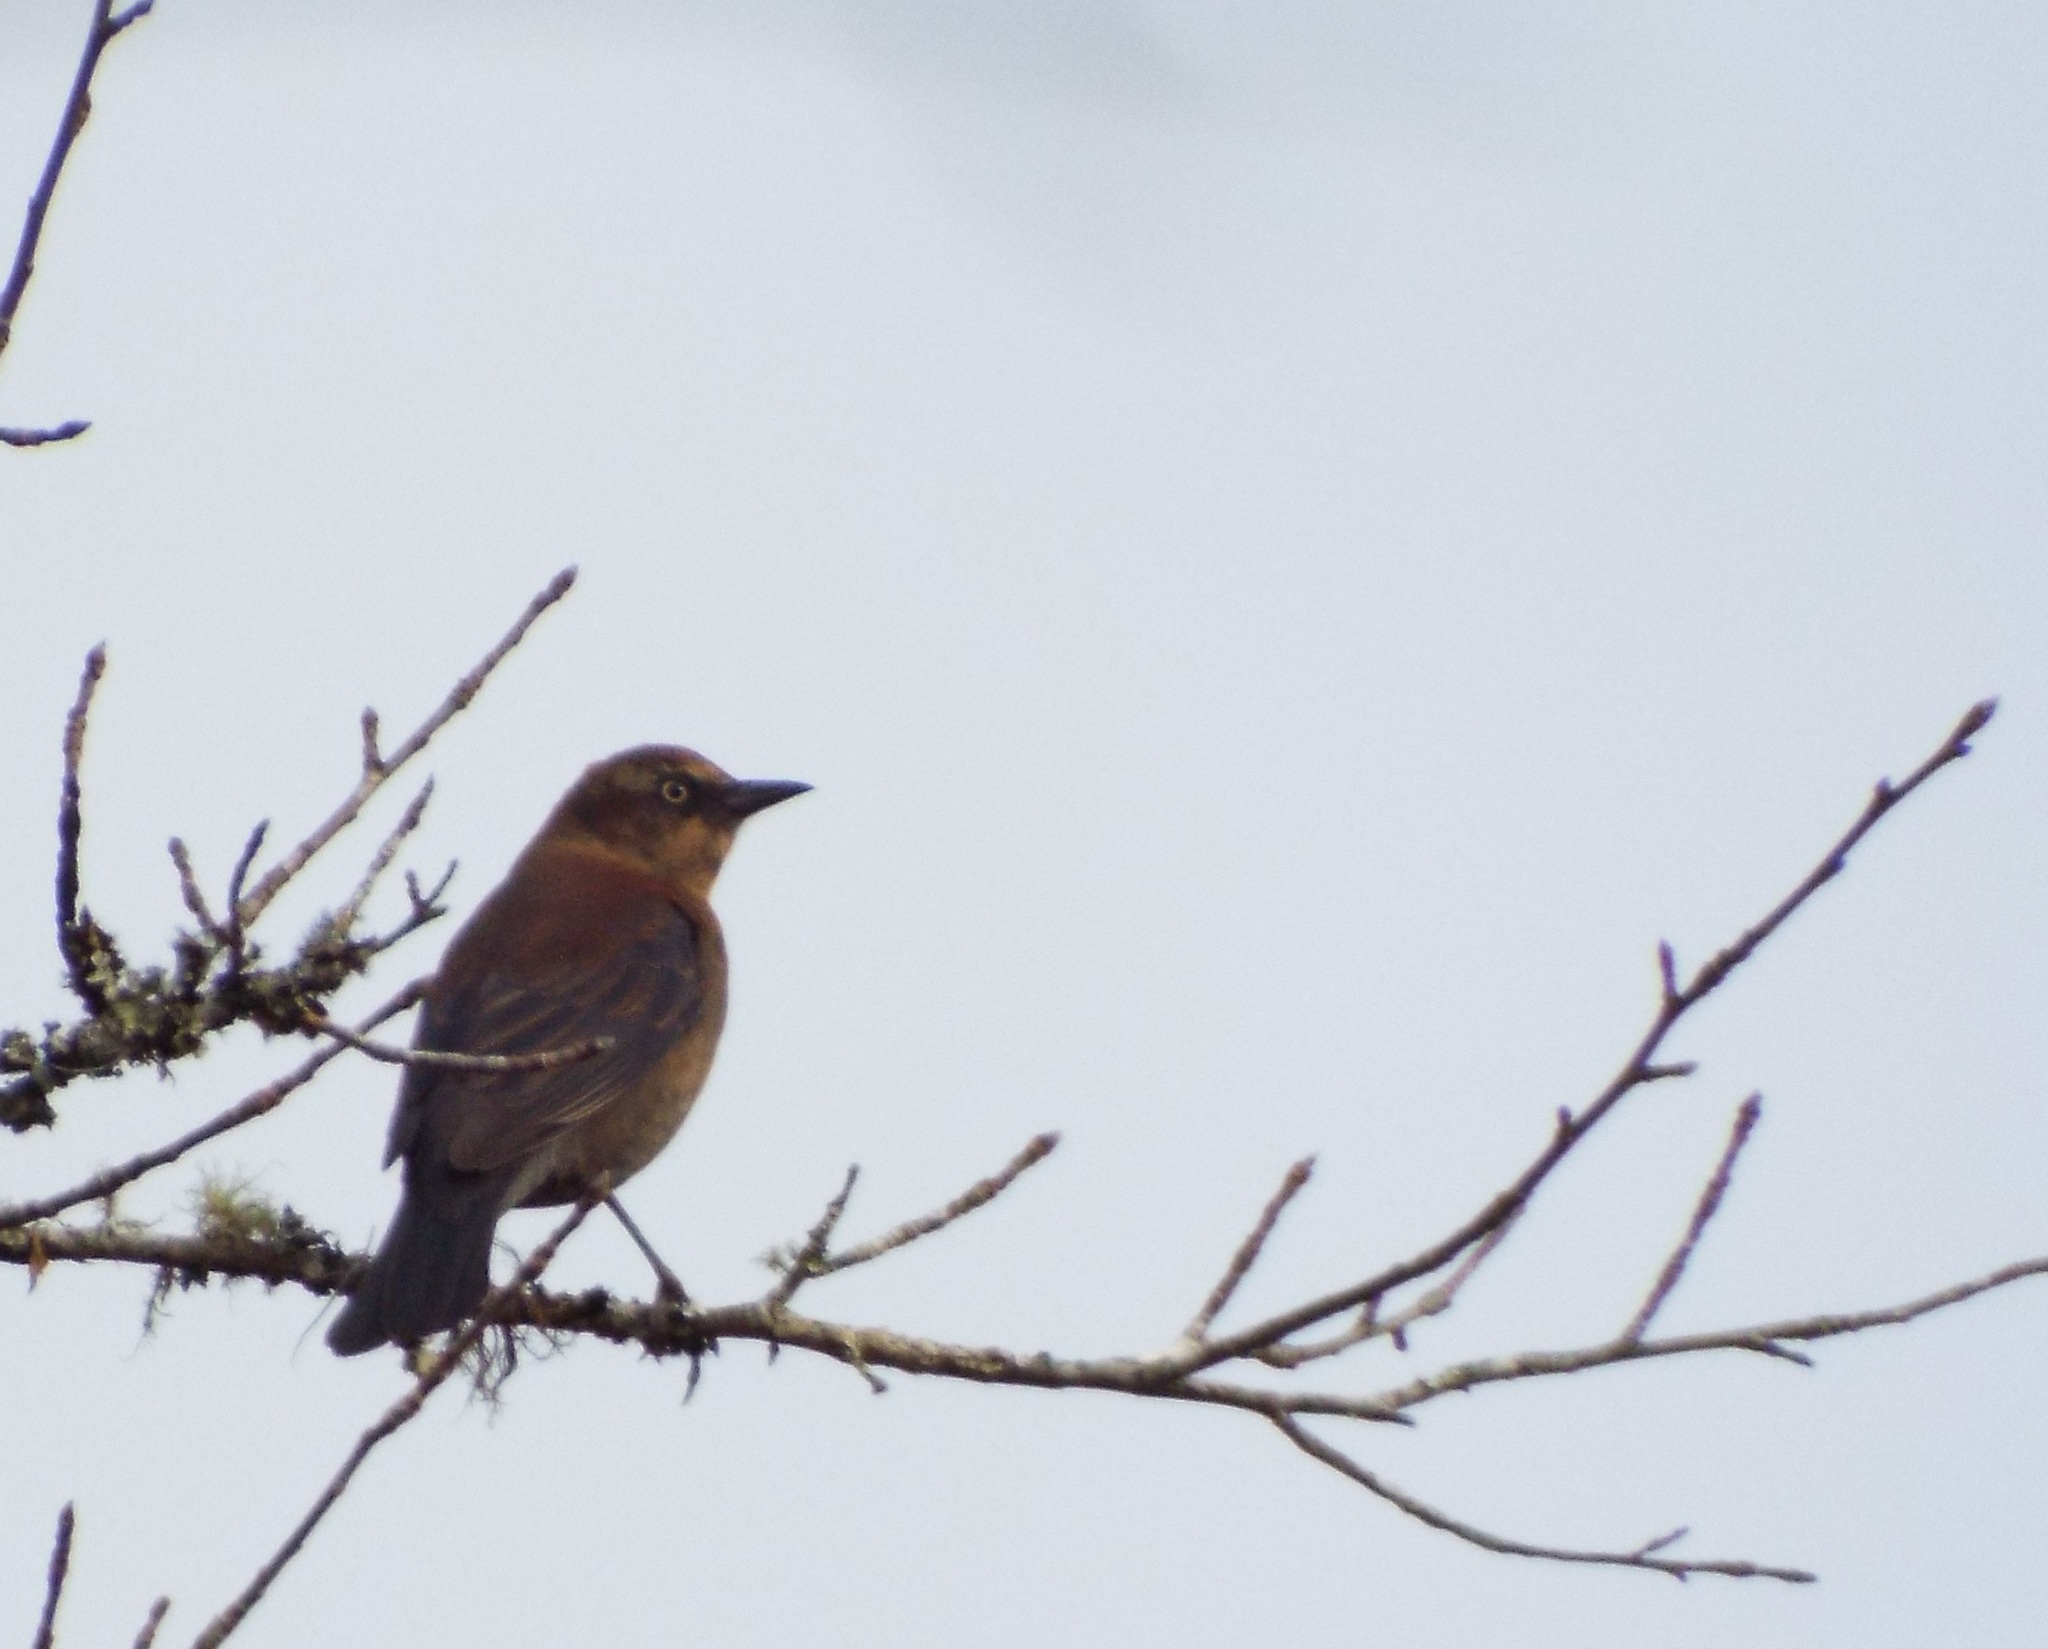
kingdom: Animalia
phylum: Chordata
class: Aves
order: Passeriformes
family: Icteridae
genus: Euphagus
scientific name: Euphagus carolinus
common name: Rusty blackbird
